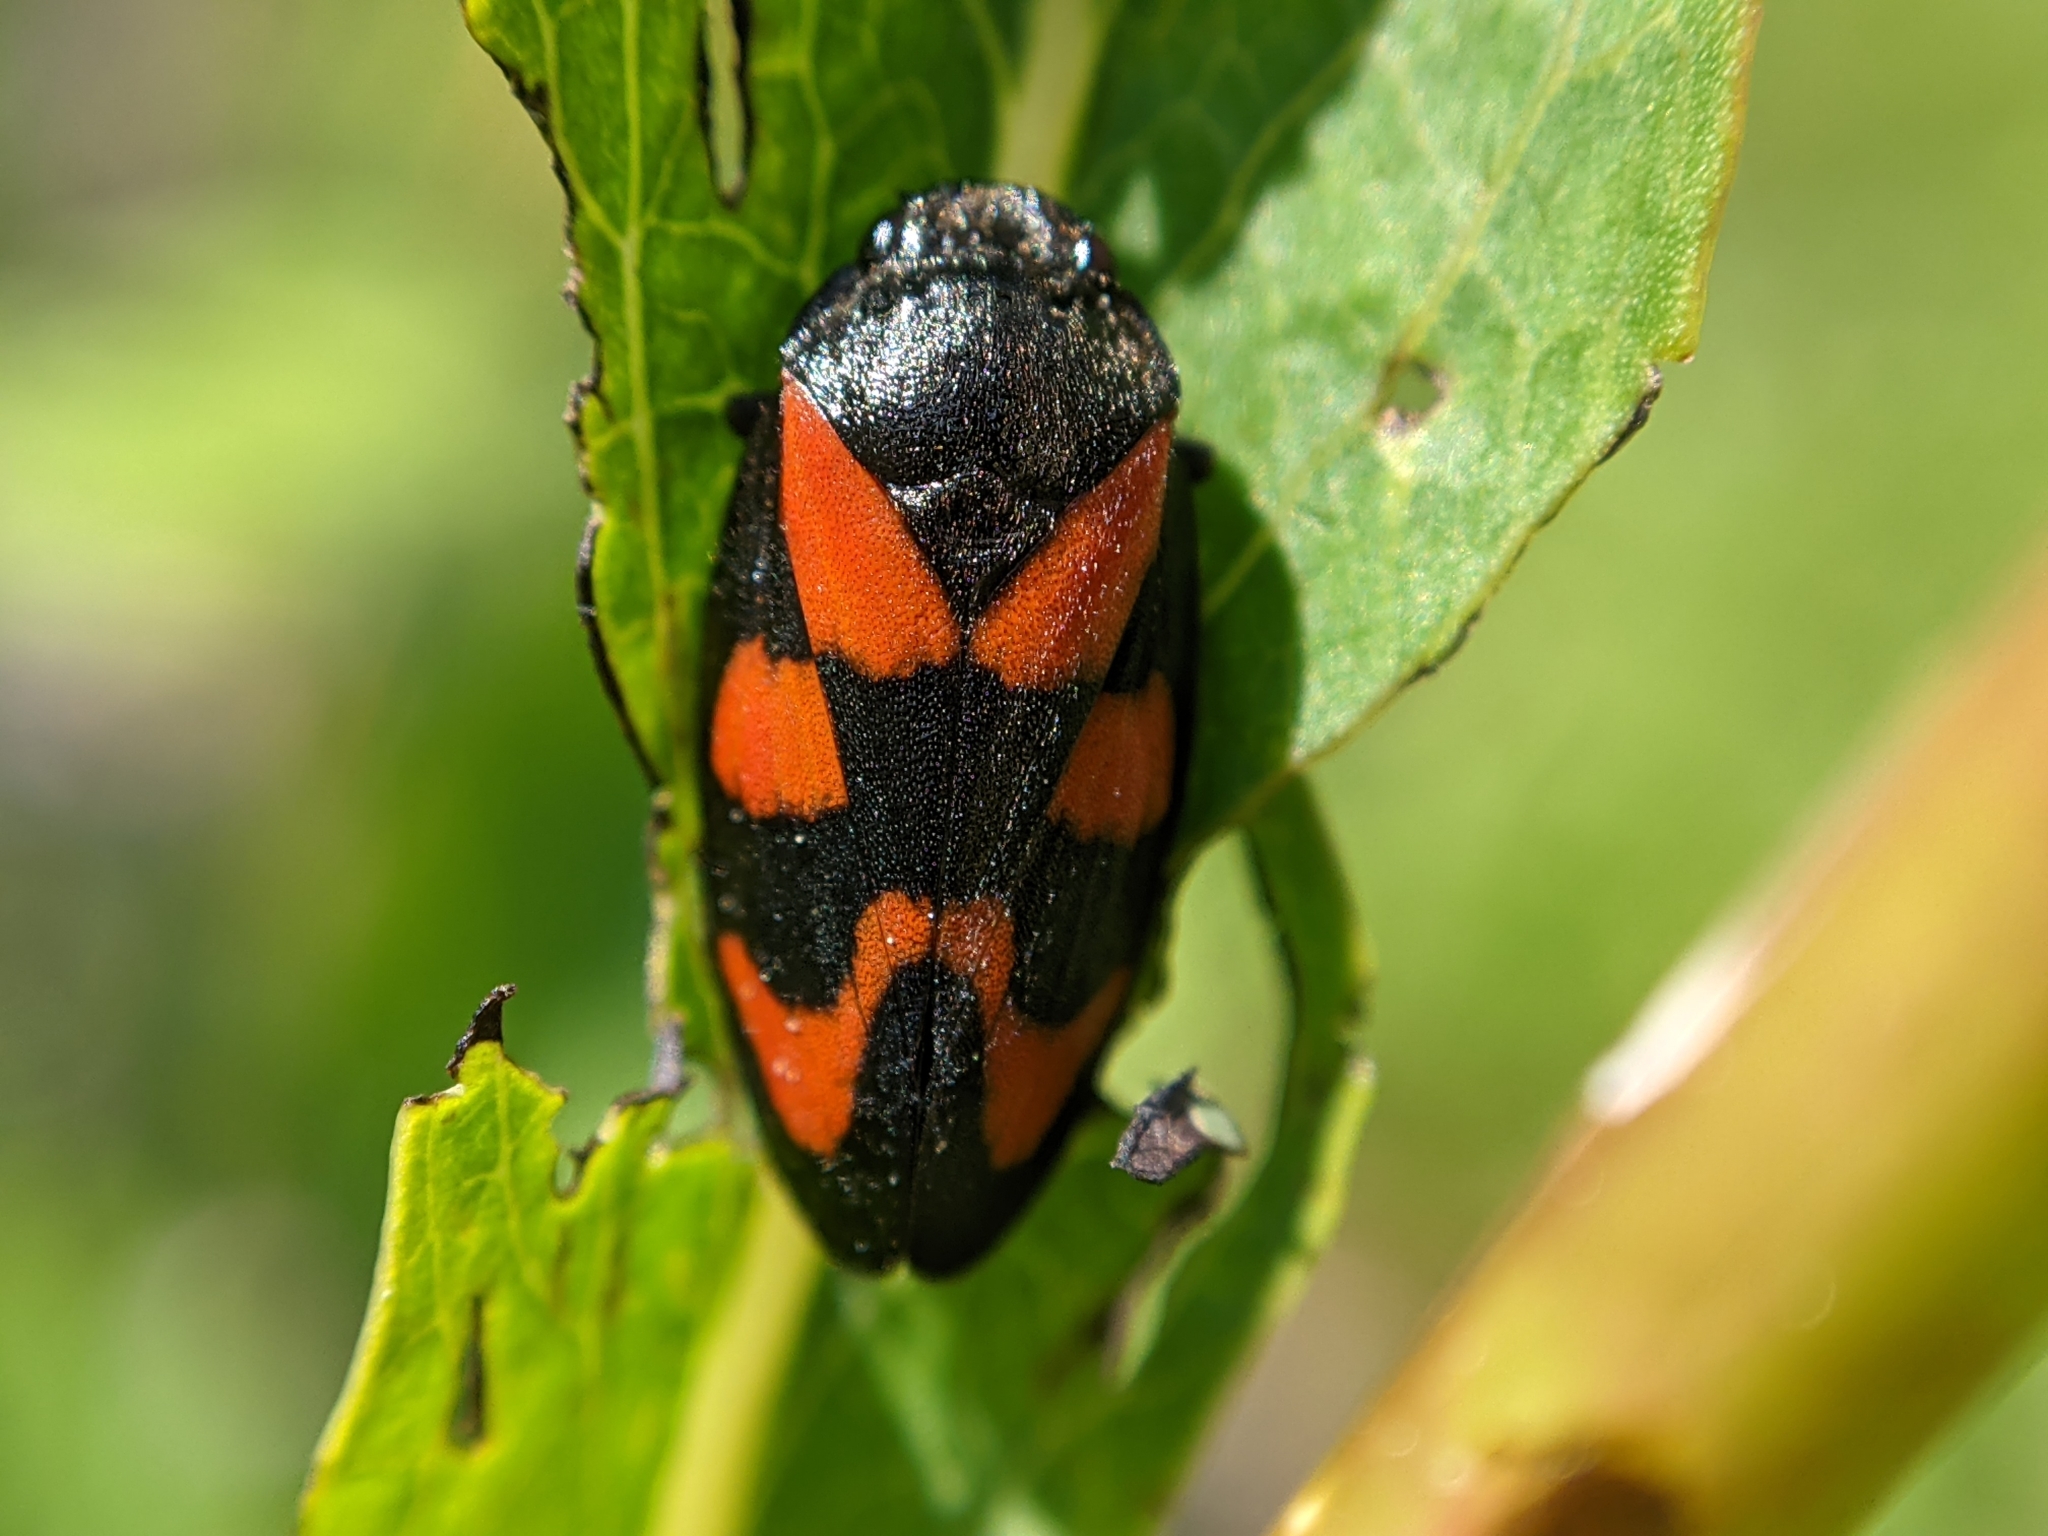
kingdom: Animalia
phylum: Arthropoda
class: Insecta
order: Hemiptera
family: Cercopidae
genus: Cercopis
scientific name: Cercopis vulnerata
